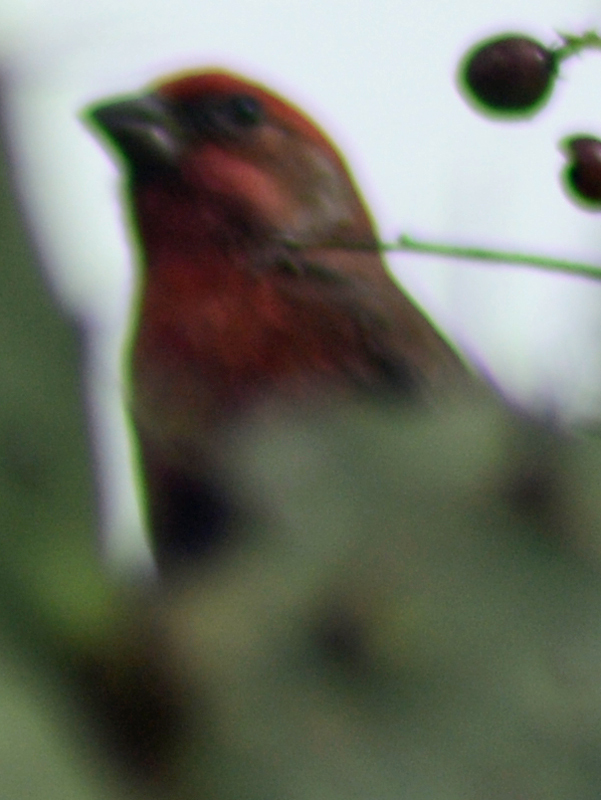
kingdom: Animalia
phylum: Chordata
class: Aves
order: Passeriformes
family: Fringillidae
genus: Haemorhous
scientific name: Haemorhous mexicanus
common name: House finch
